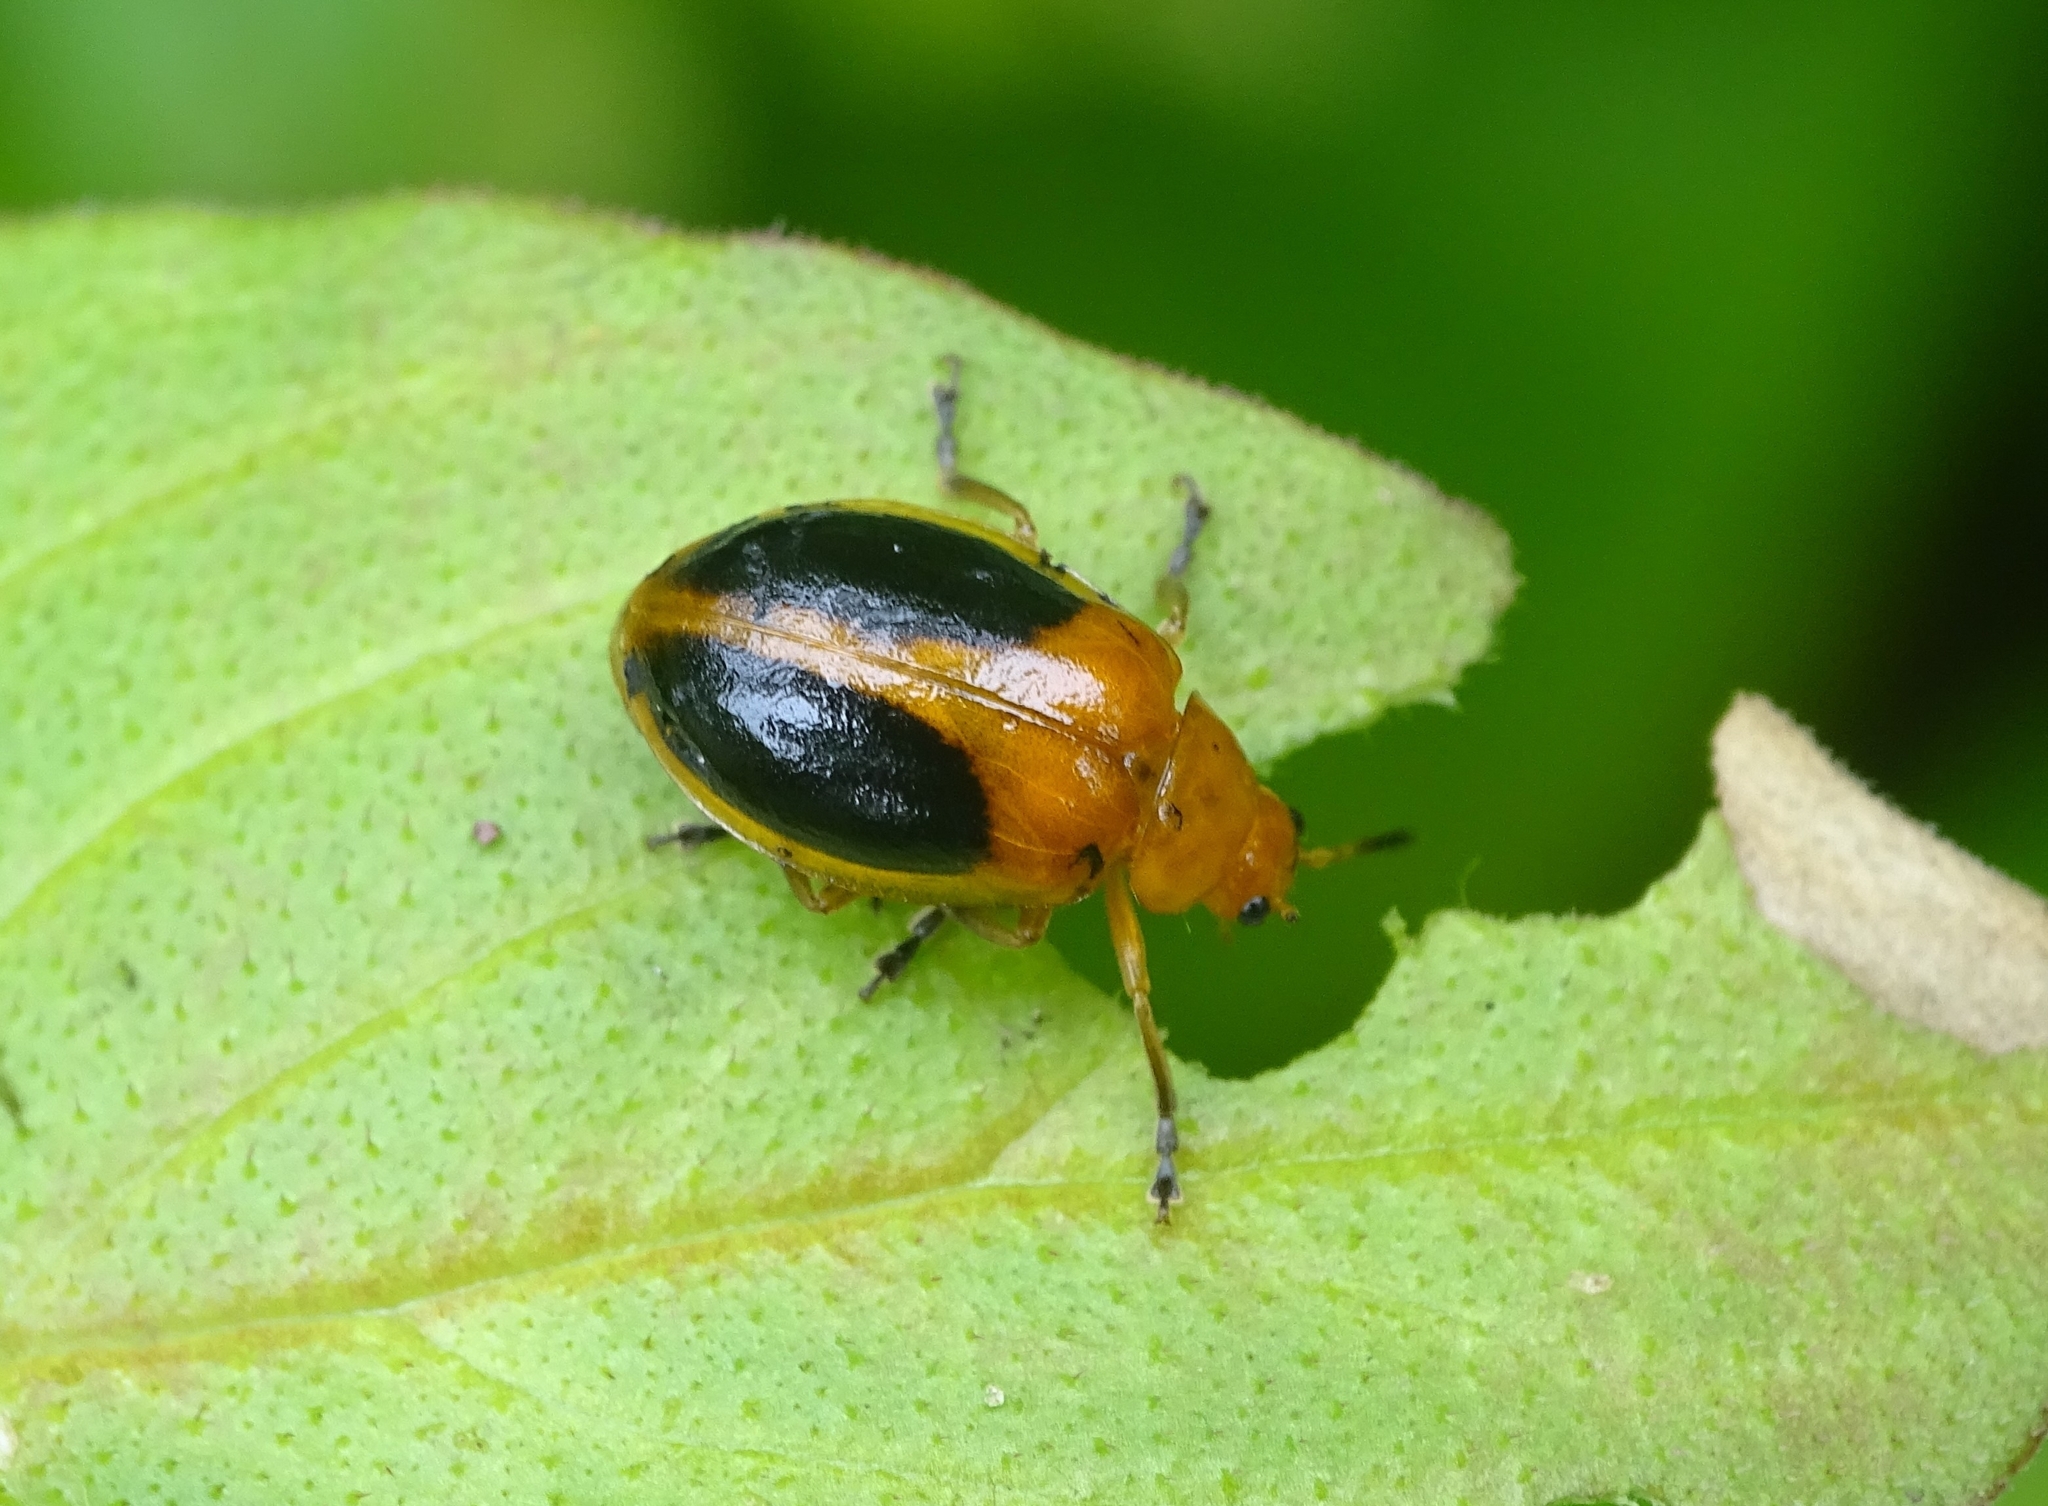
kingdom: Animalia
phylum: Arthropoda
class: Insecta
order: Coleoptera
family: Chrysomelidae
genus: Oides
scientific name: Oides affinis
